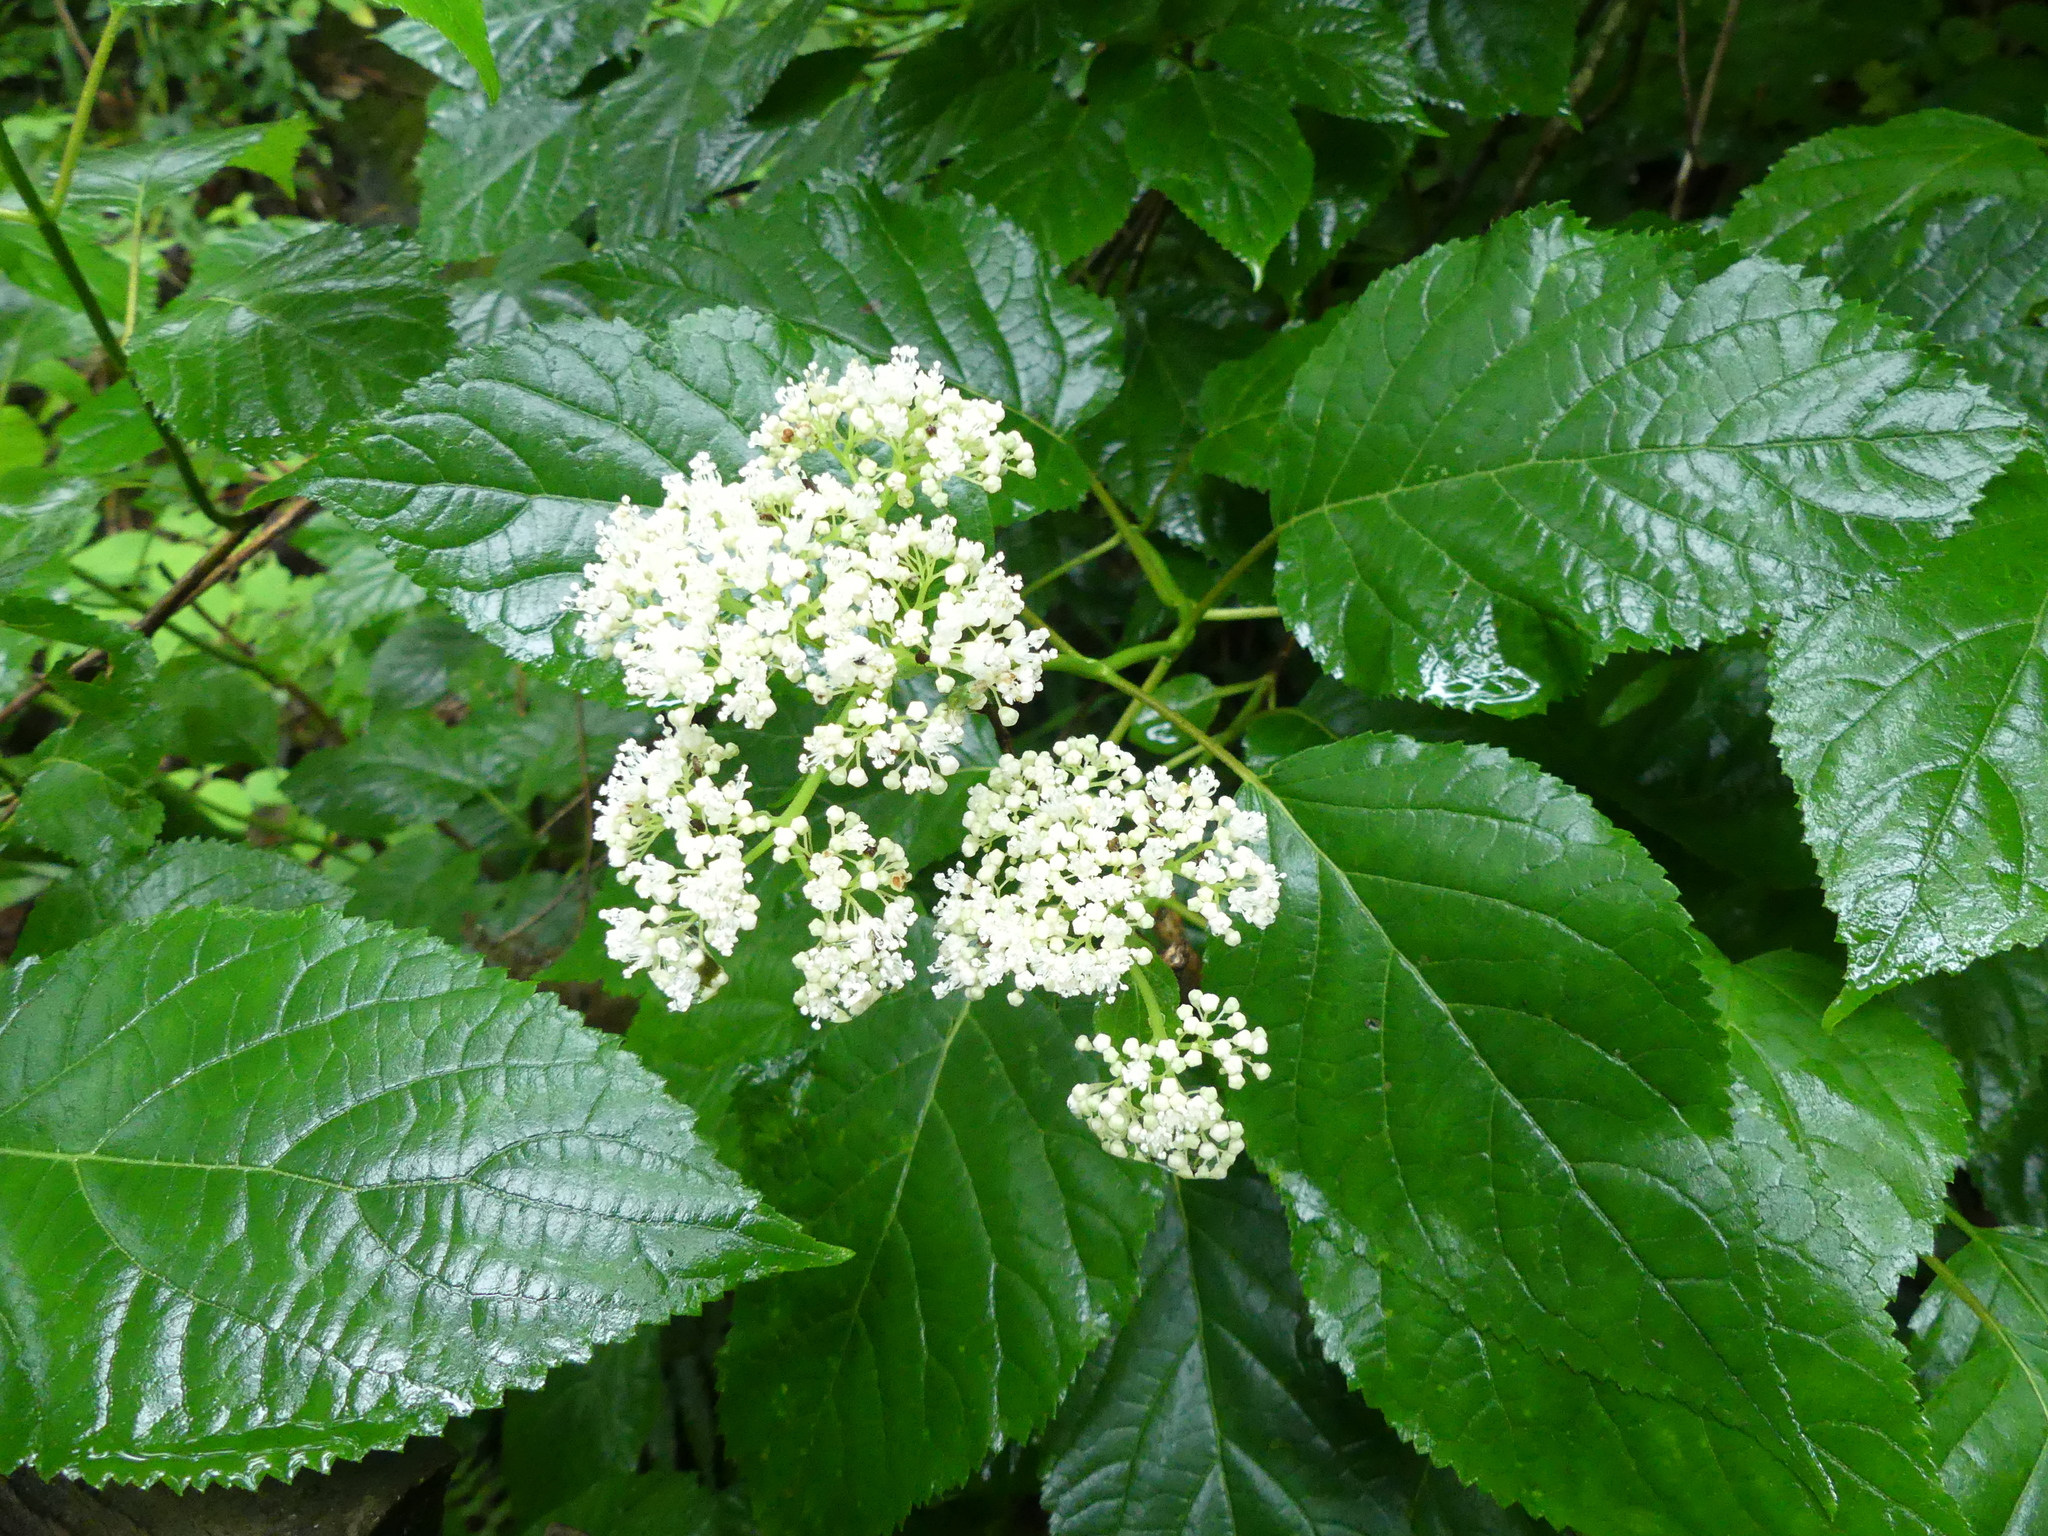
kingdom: Plantae
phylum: Tracheophyta
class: Magnoliopsida
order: Cornales
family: Hydrangeaceae
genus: Hydrangea
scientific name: Hydrangea arborescens
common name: Sevenbark
